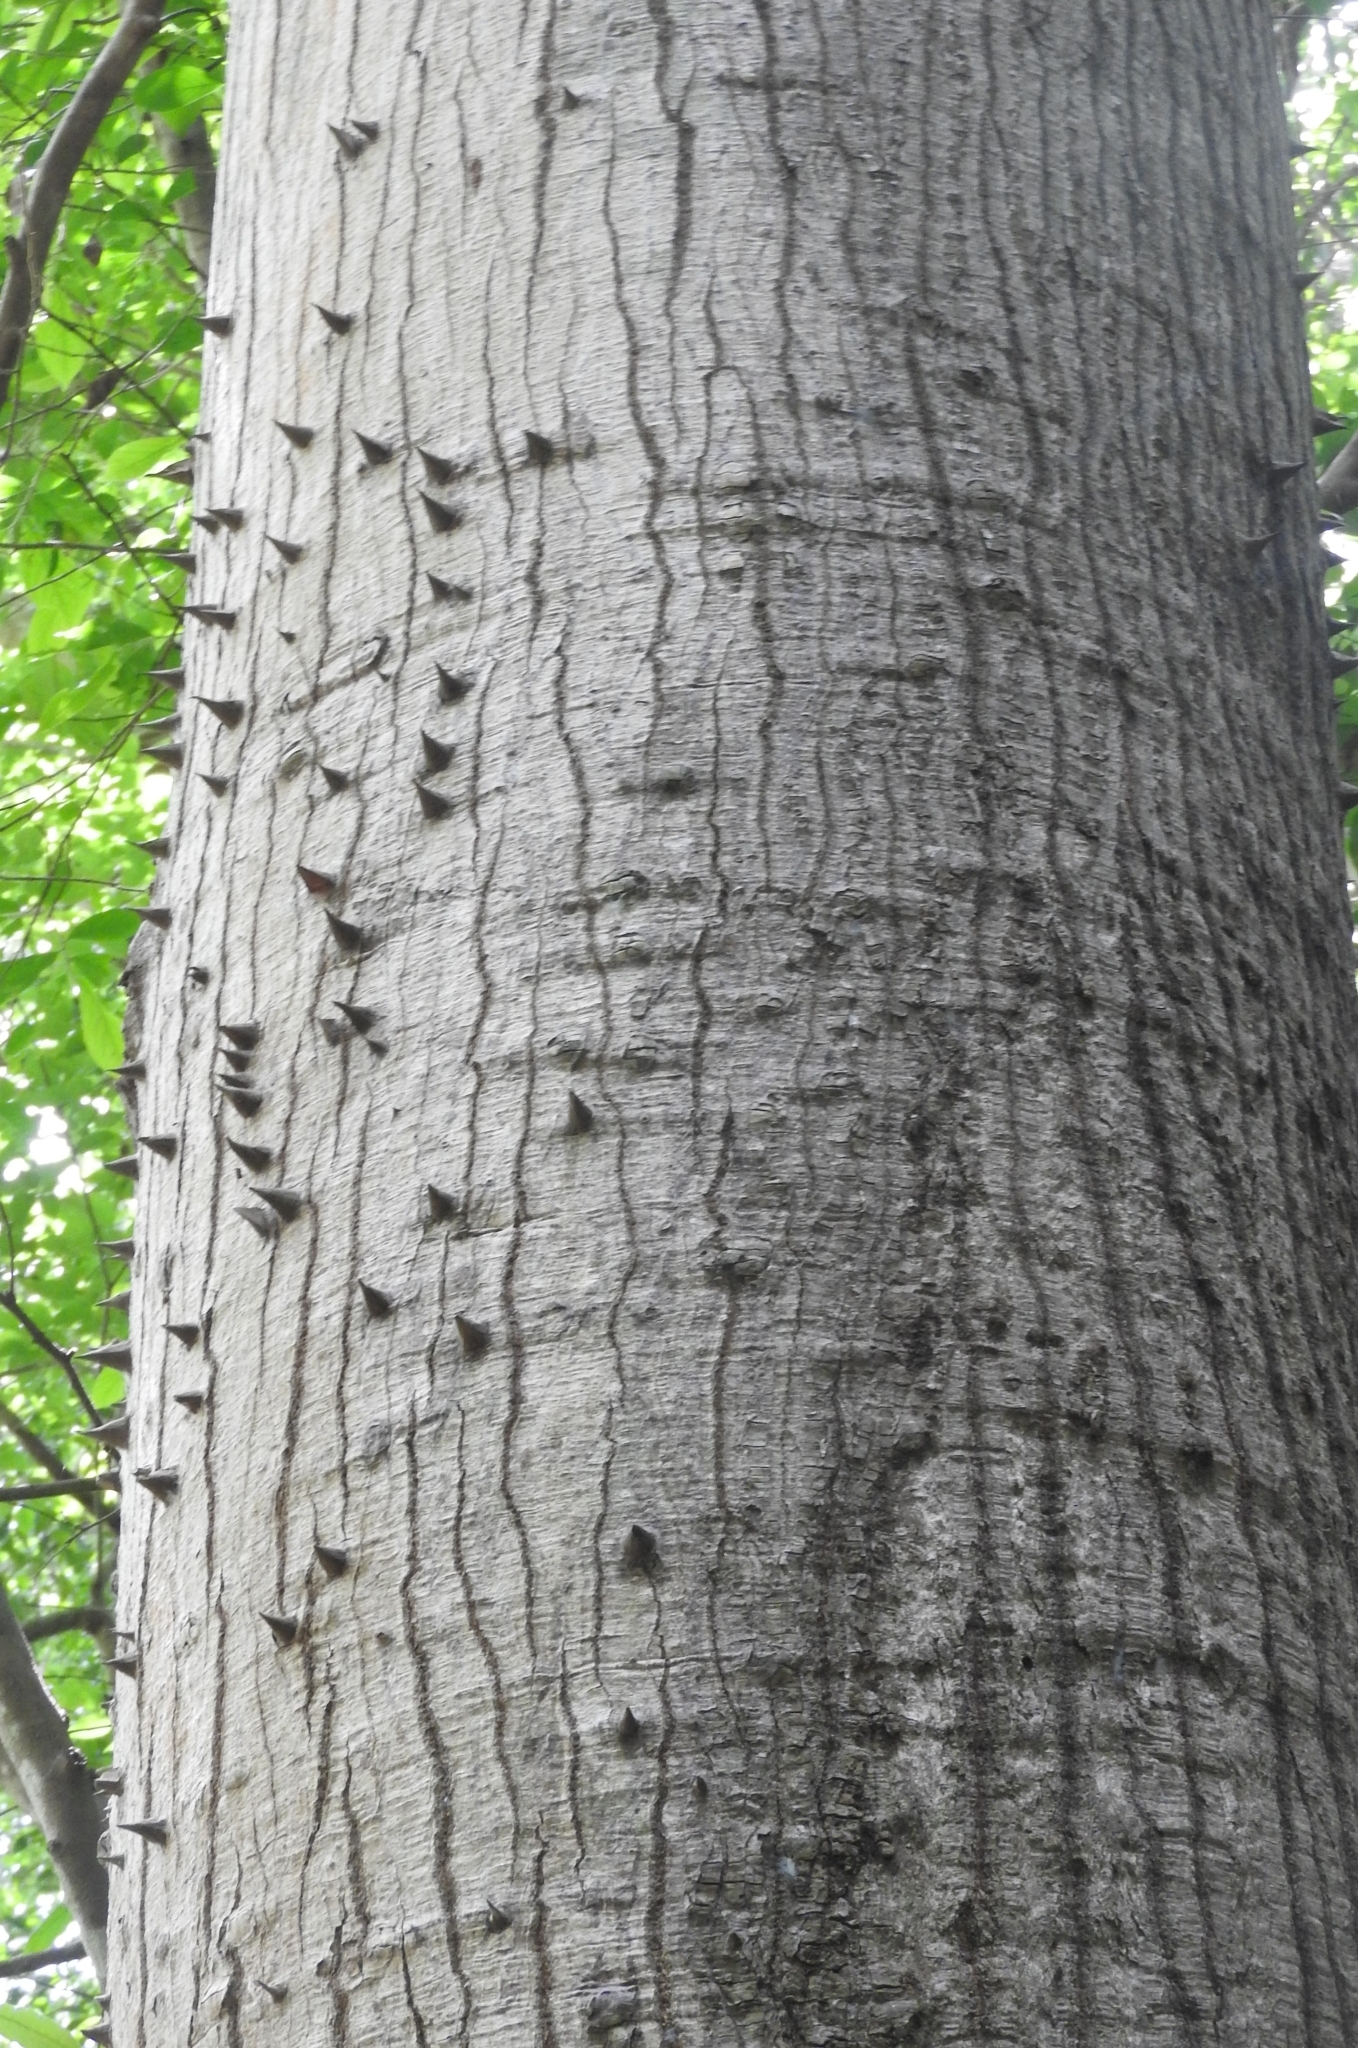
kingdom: Plantae
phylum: Tracheophyta
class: Magnoliopsida
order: Malvales
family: Malvaceae
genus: Ceiba
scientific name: Ceiba pentandra
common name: Kapok
